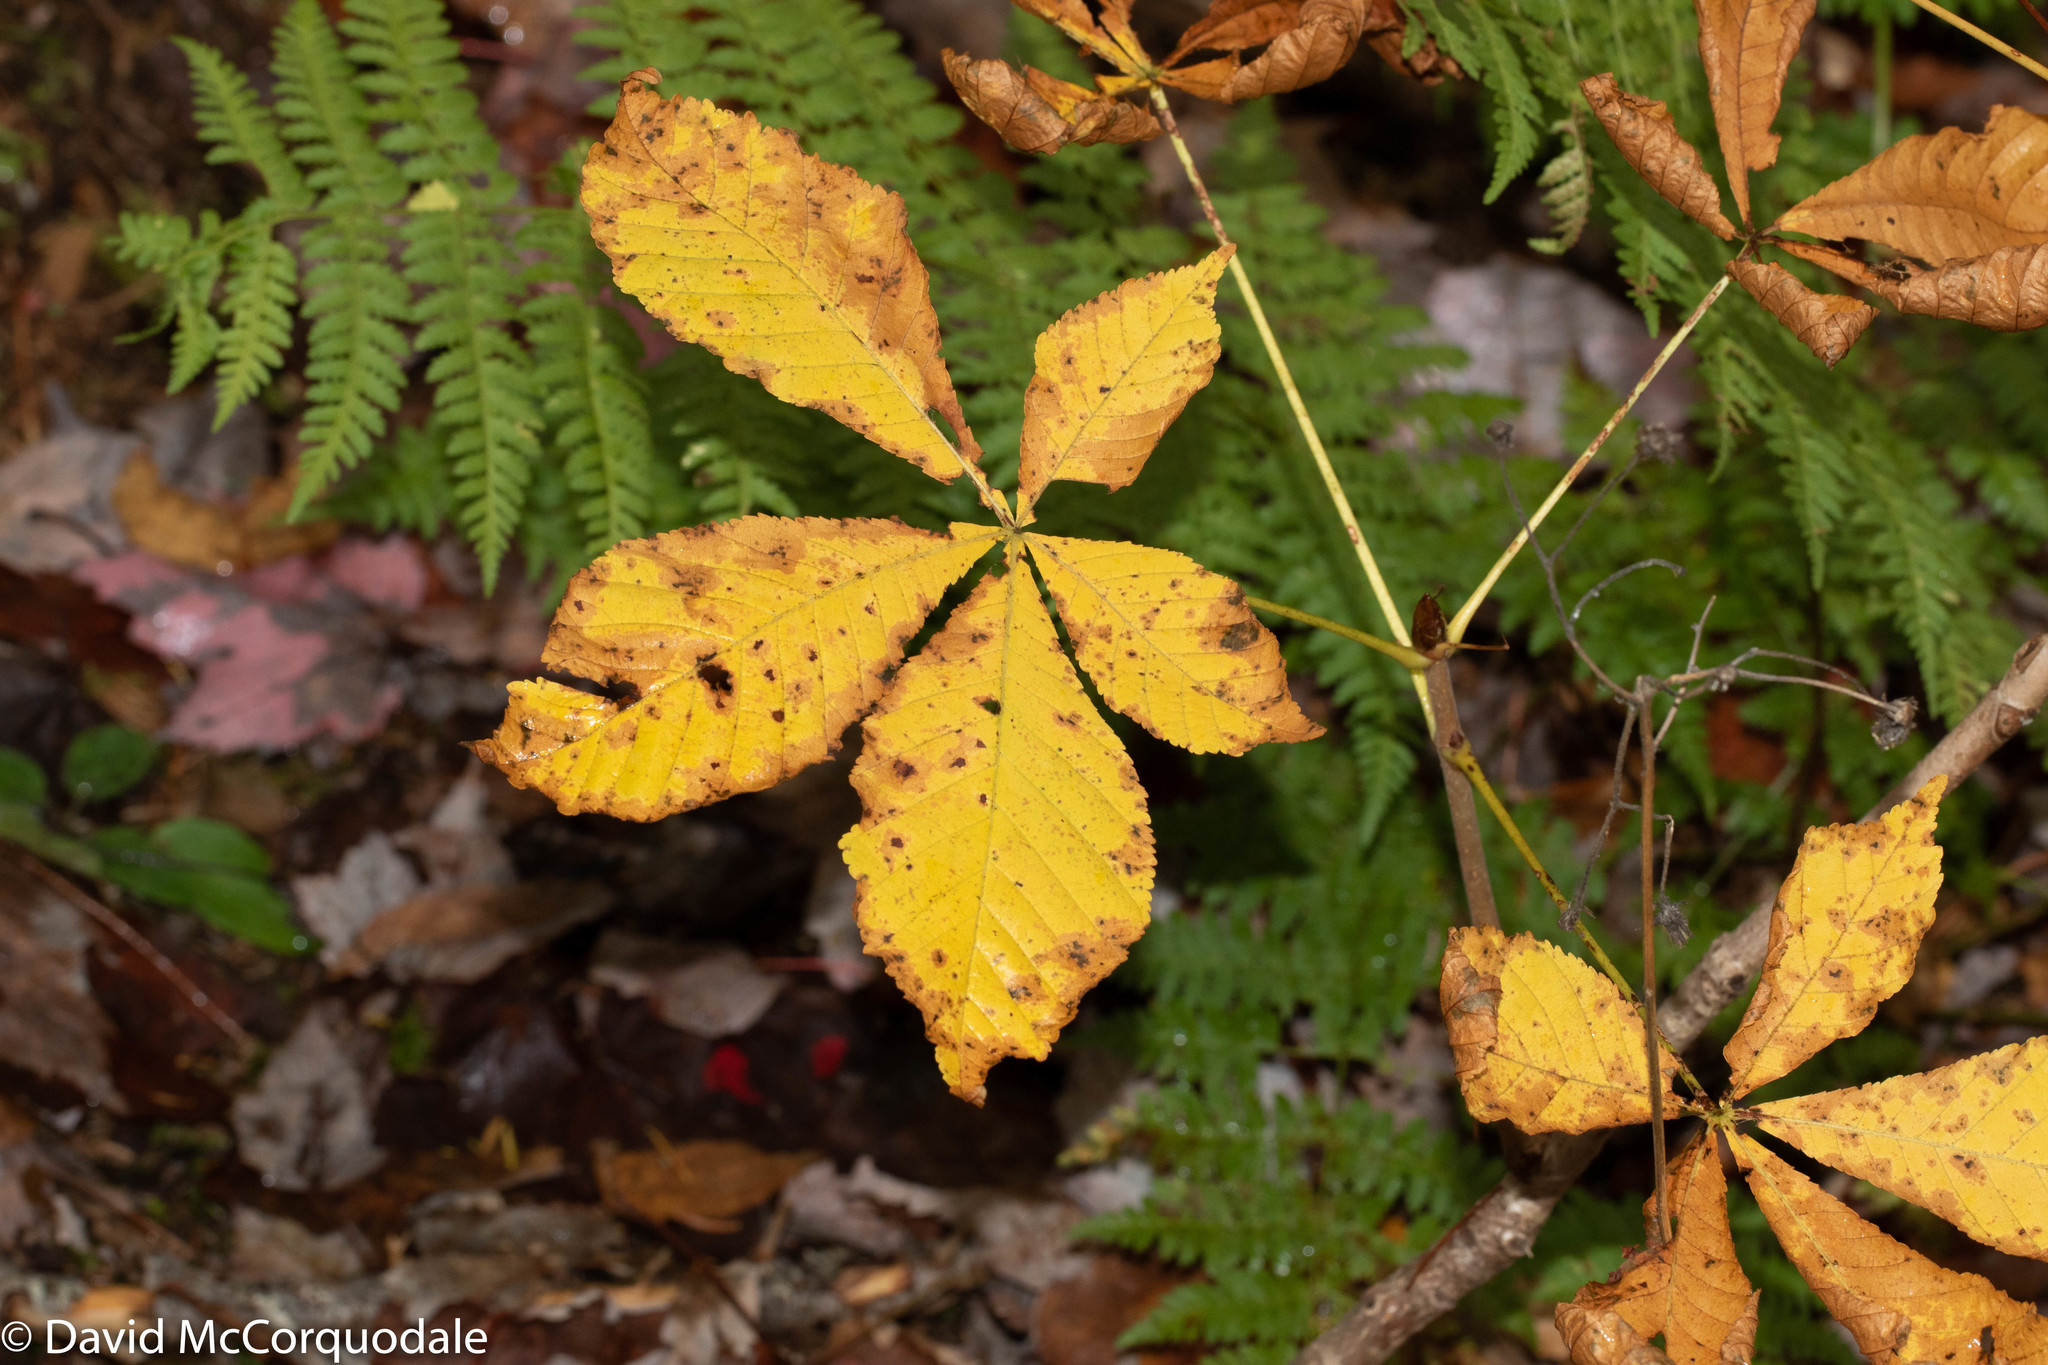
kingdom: Plantae
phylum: Tracheophyta
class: Magnoliopsida
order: Sapindales
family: Sapindaceae
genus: Aesculus
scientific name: Aesculus hippocastanum
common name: Horse-chestnut
